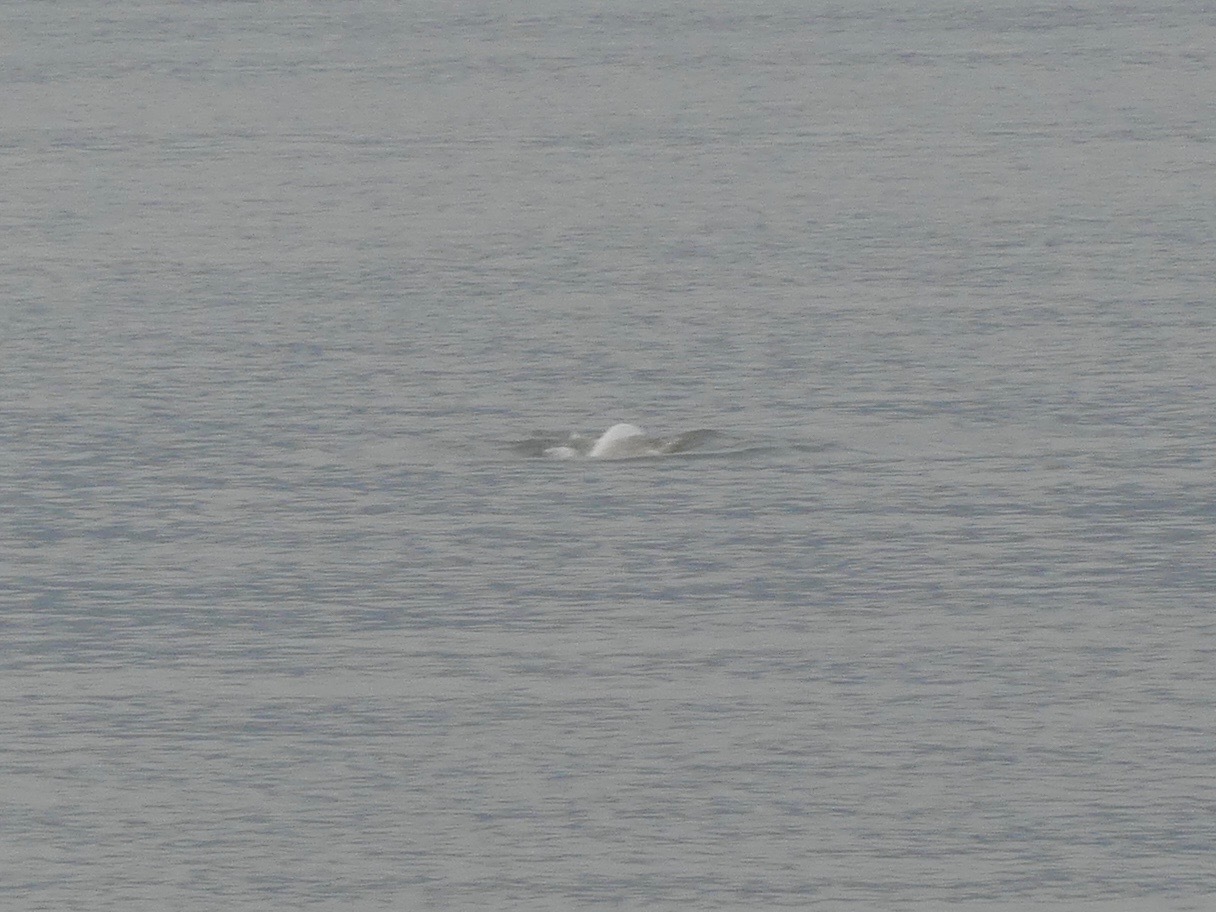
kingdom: Animalia
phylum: Chordata
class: Mammalia
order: Cetacea
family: Monodontidae
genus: Delphinapterus
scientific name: Delphinapterus leucas
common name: Beluga
